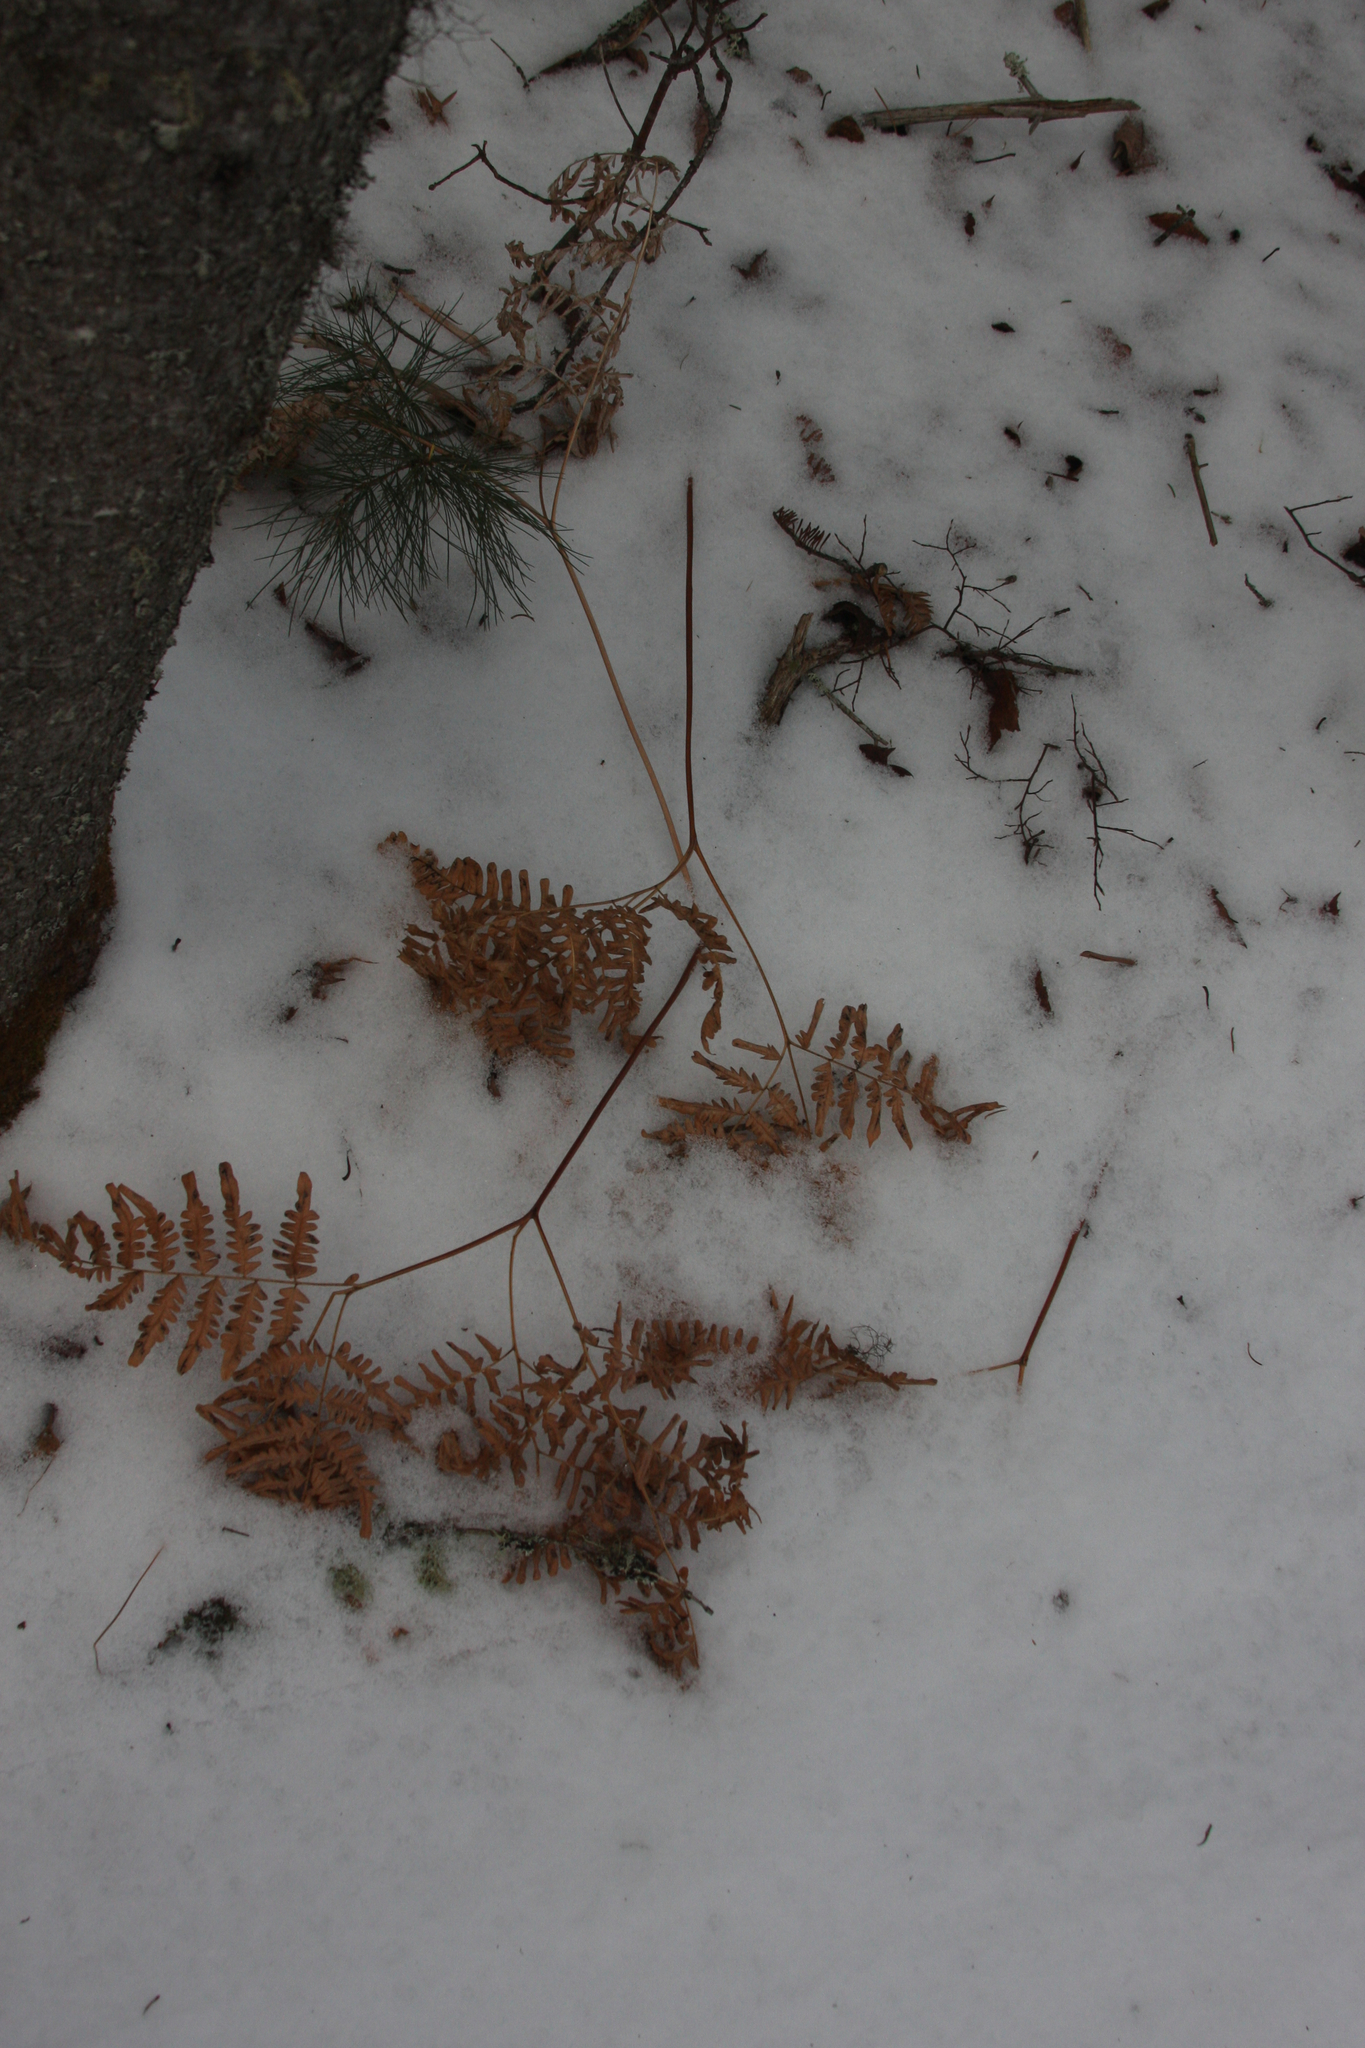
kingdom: Plantae
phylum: Tracheophyta
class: Polypodiopsida
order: Polypodiales
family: Dennstaedtiaceae
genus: Pteridium
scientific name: Pteridium aquilinum
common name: Bracken
